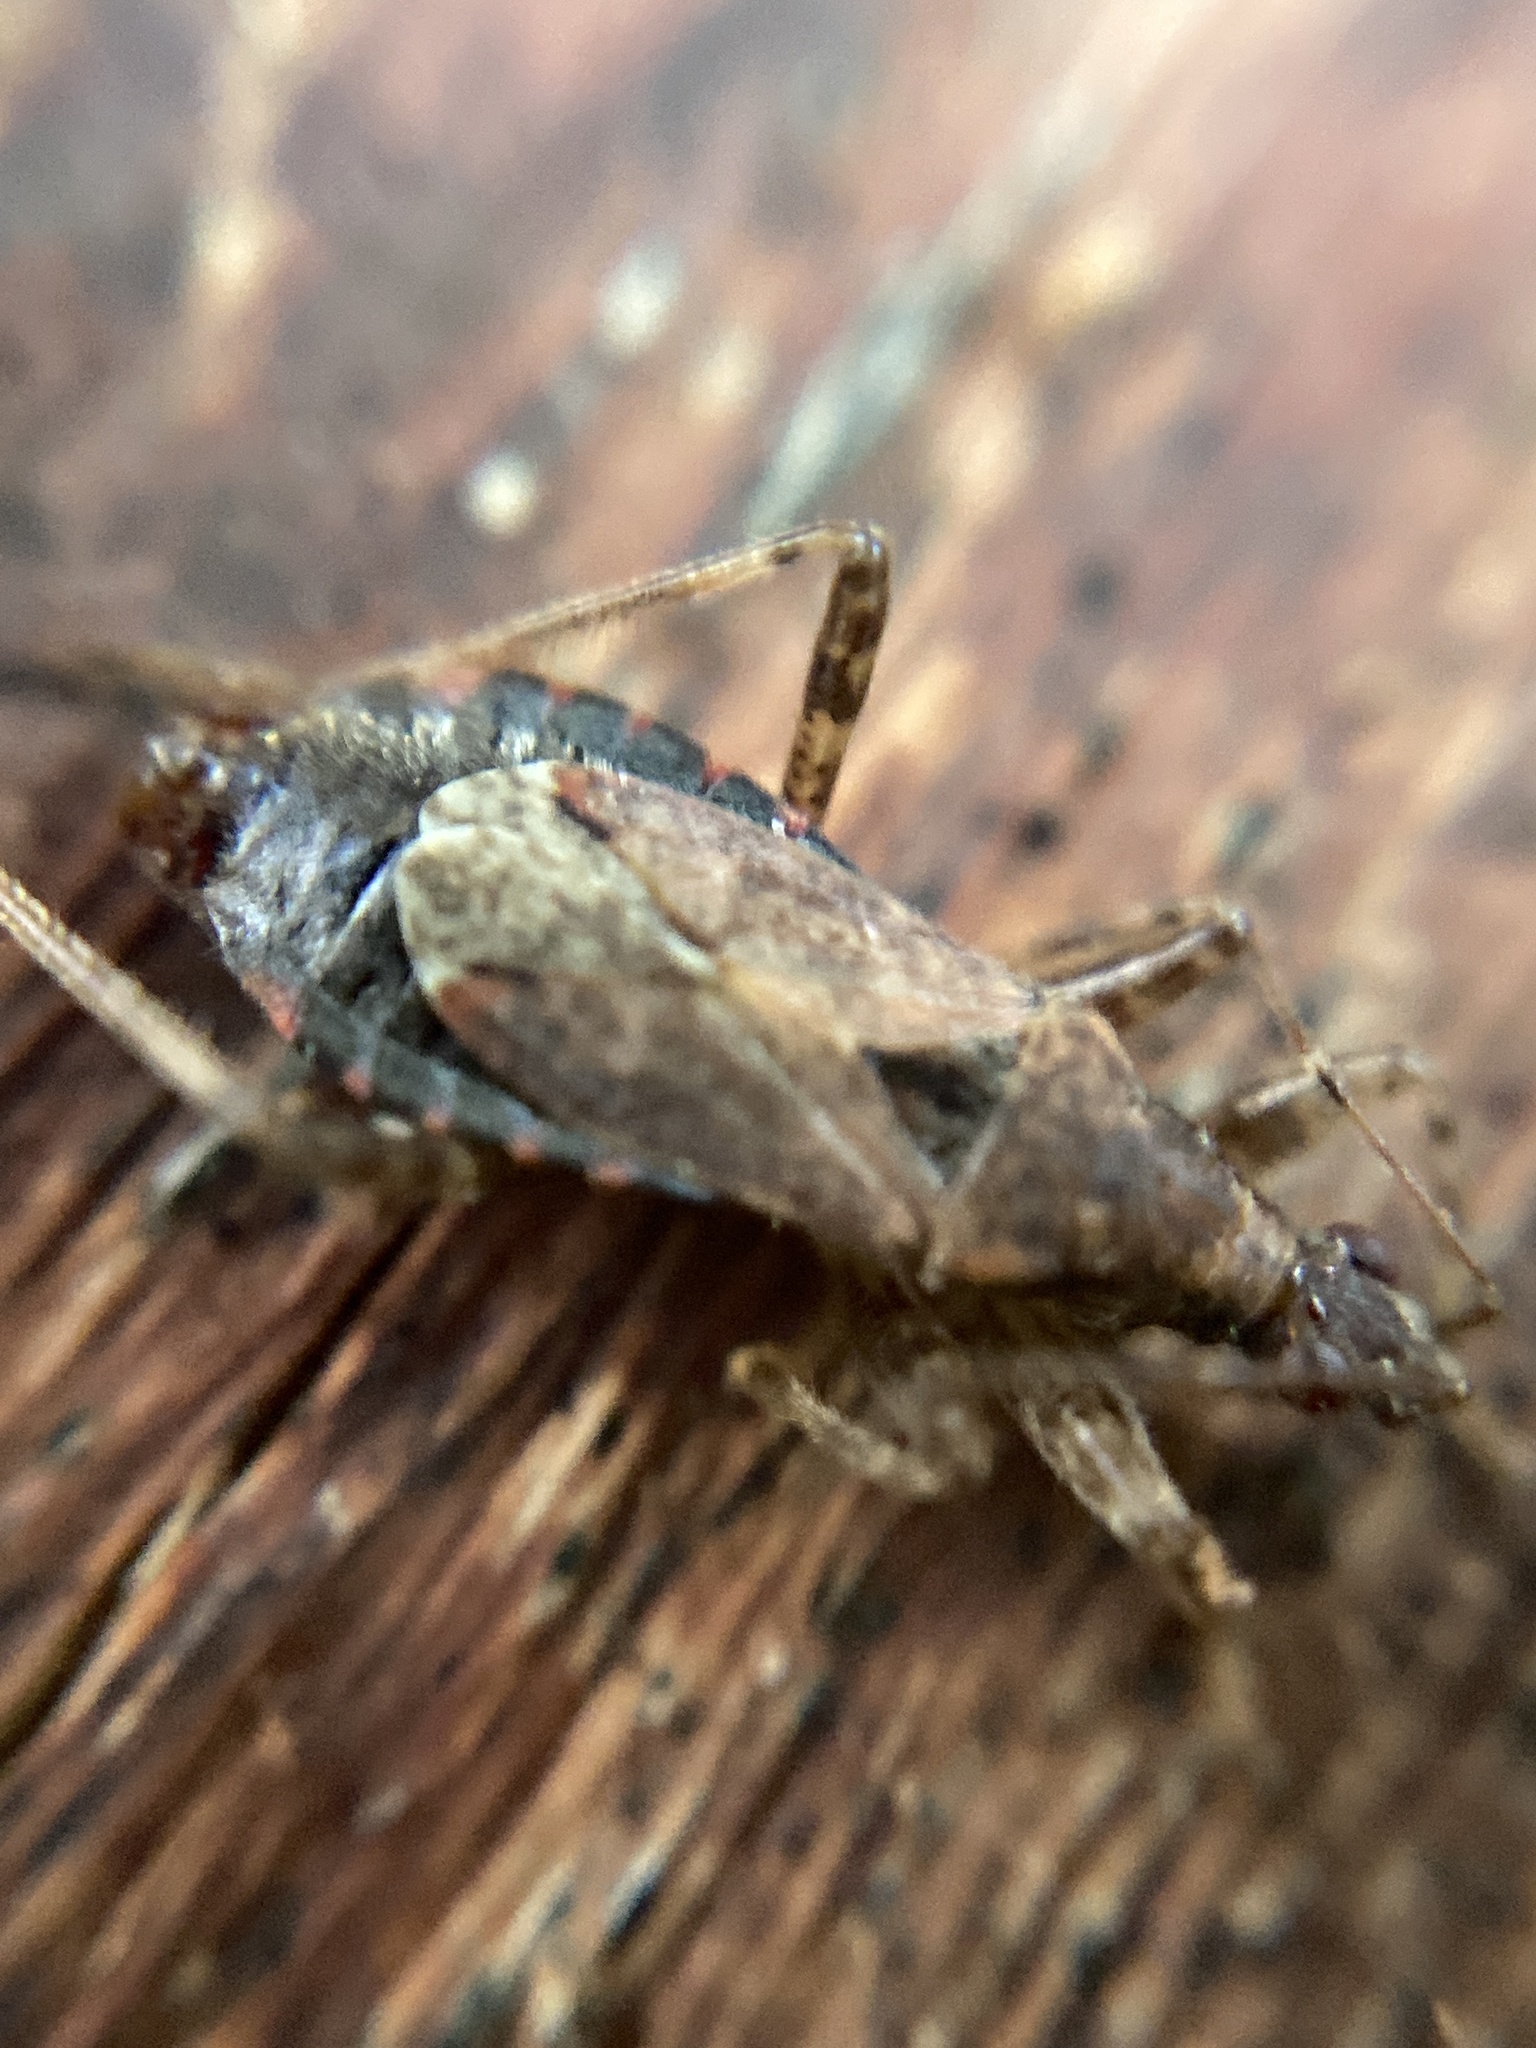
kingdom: Animalia
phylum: Arthropoda
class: Insecta
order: Hemiptera
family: Nabidae
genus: Himacerus
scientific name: Himacerus mirmicoides
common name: Ant damsel bug
